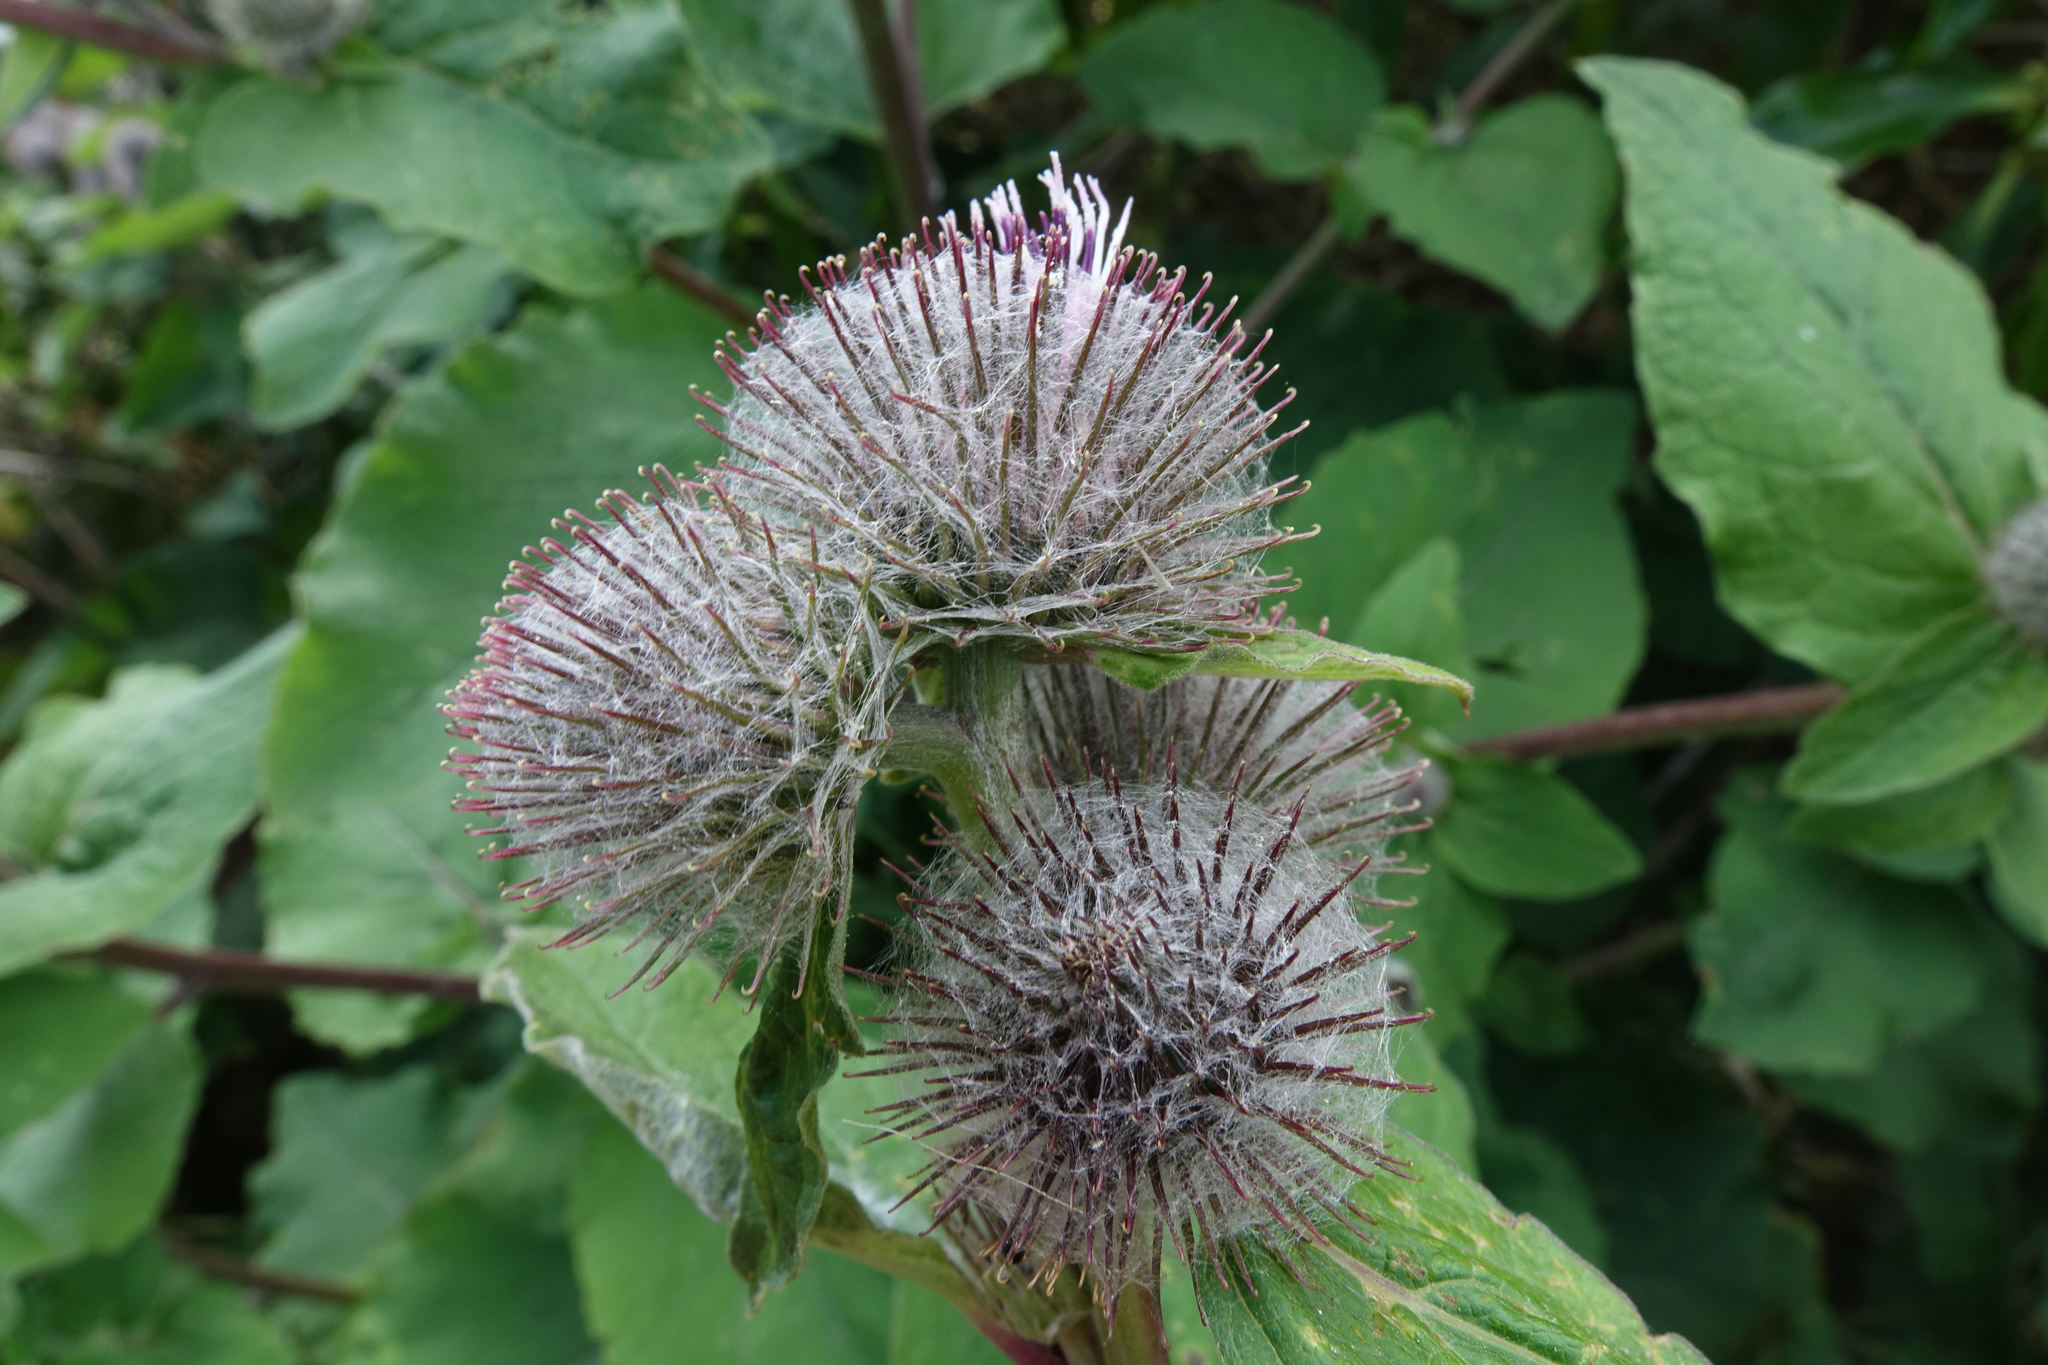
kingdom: Plantae
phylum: Tracheophyta
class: Magnoliopsida
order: Asterales
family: Asteraceae
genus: Arctium
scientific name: Arctium minus
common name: Lesser burdock
